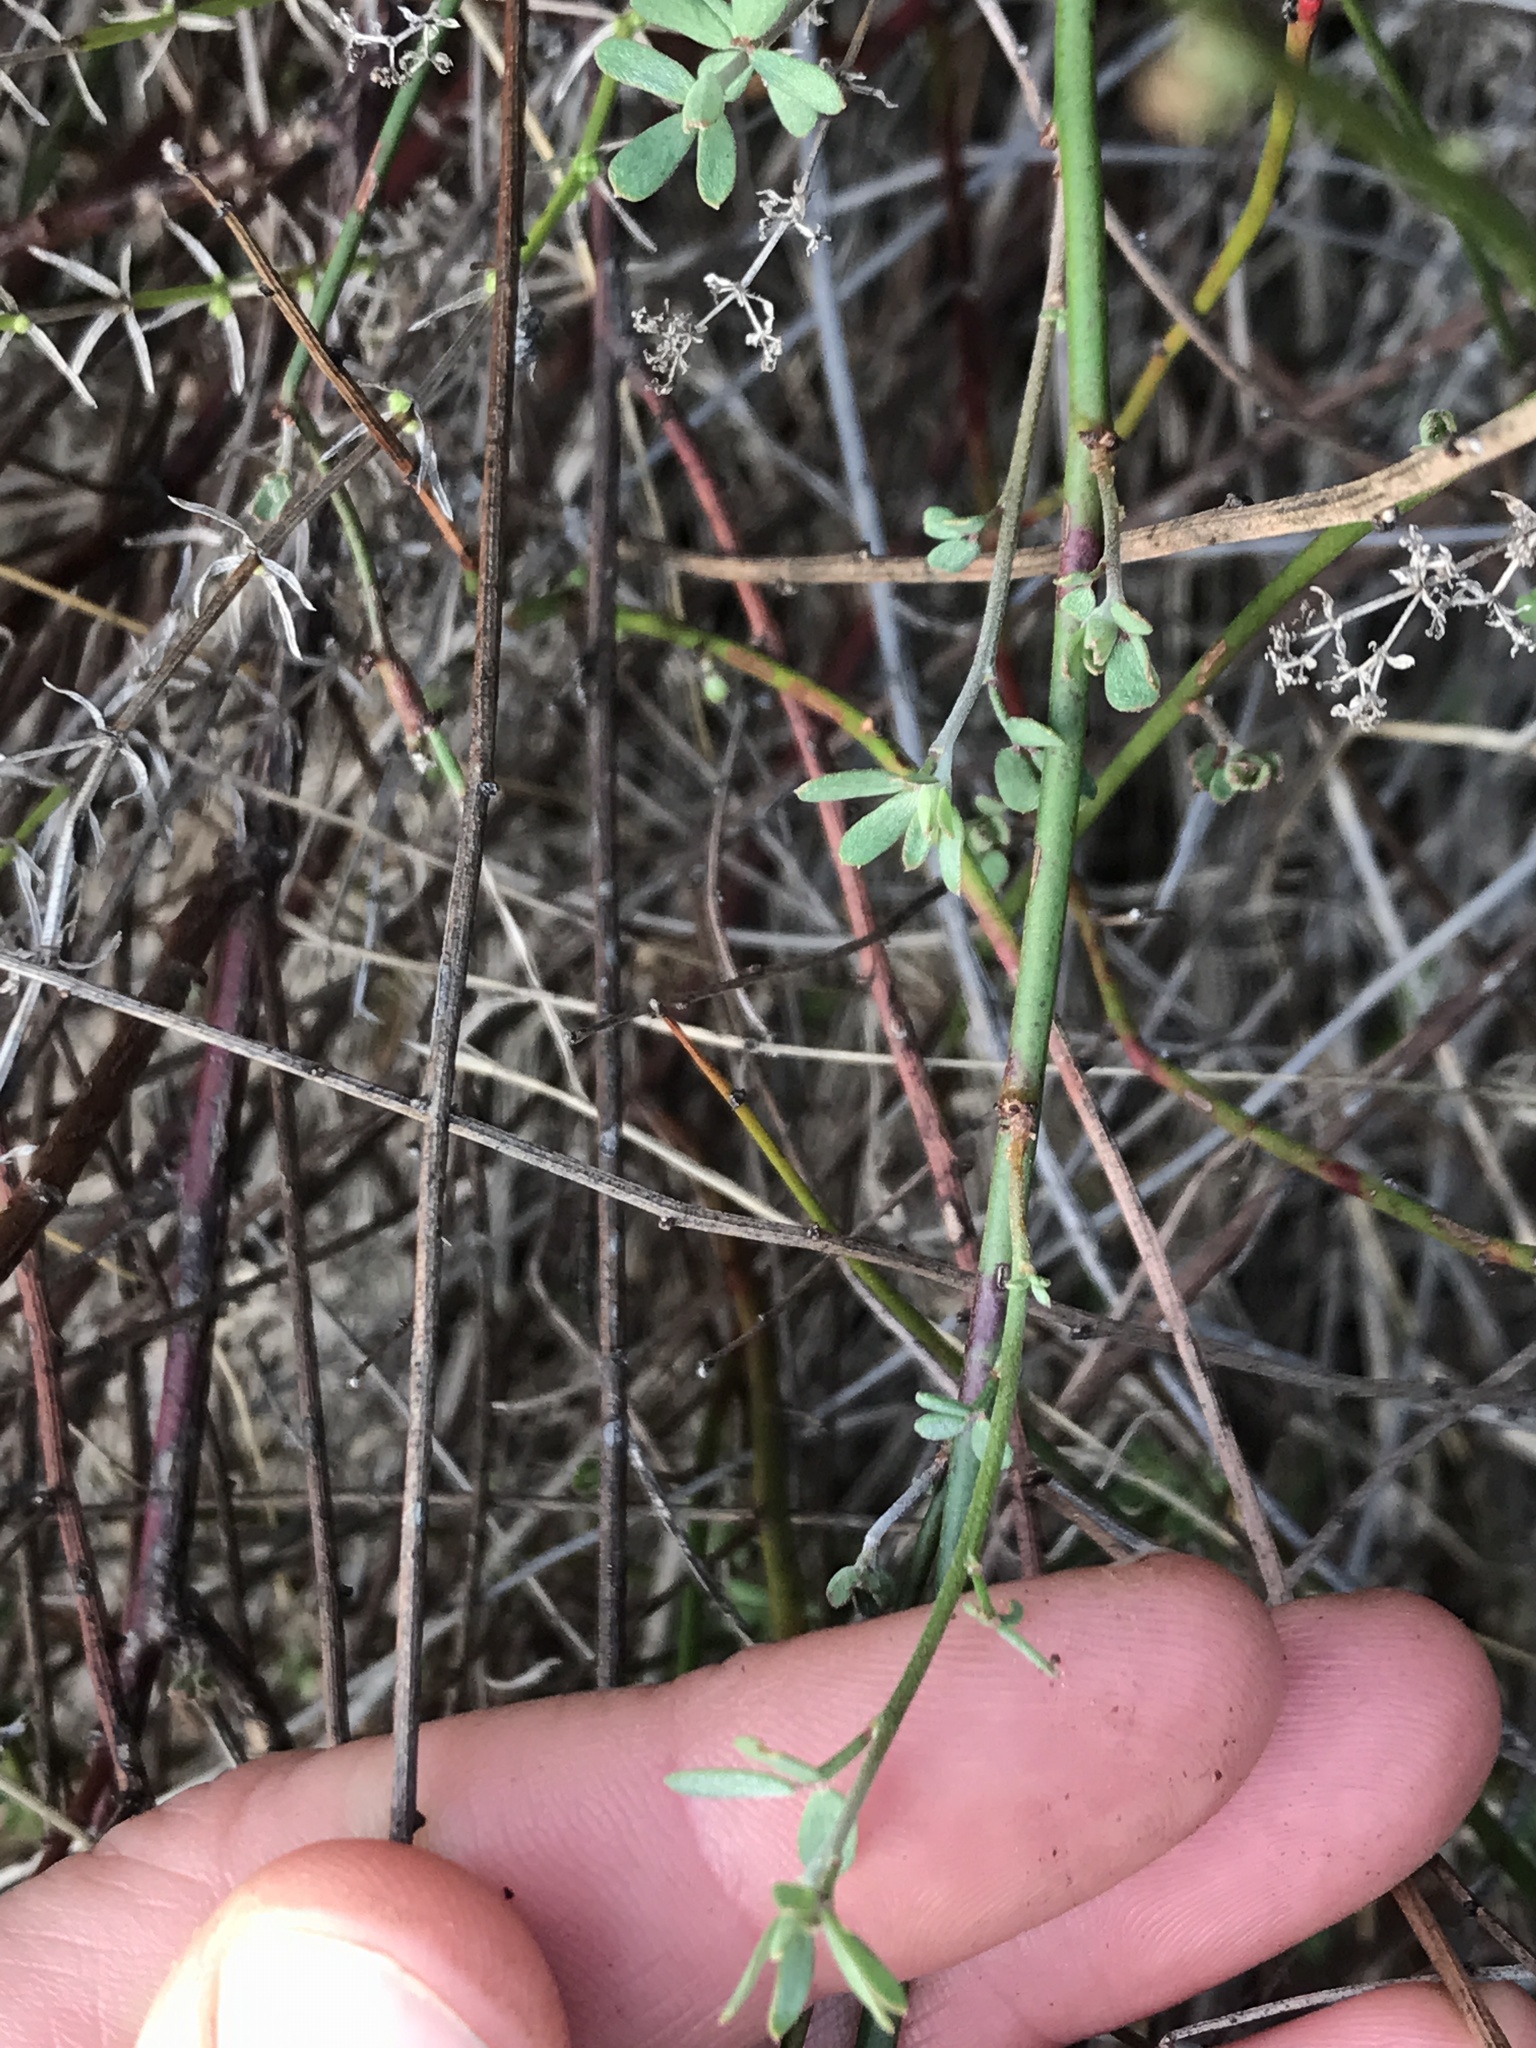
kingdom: Plantae
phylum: Tracheophyta
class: Magnoliopsida
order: Fabales
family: Fabaceae
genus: Acmispon
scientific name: Acmispon glaber
